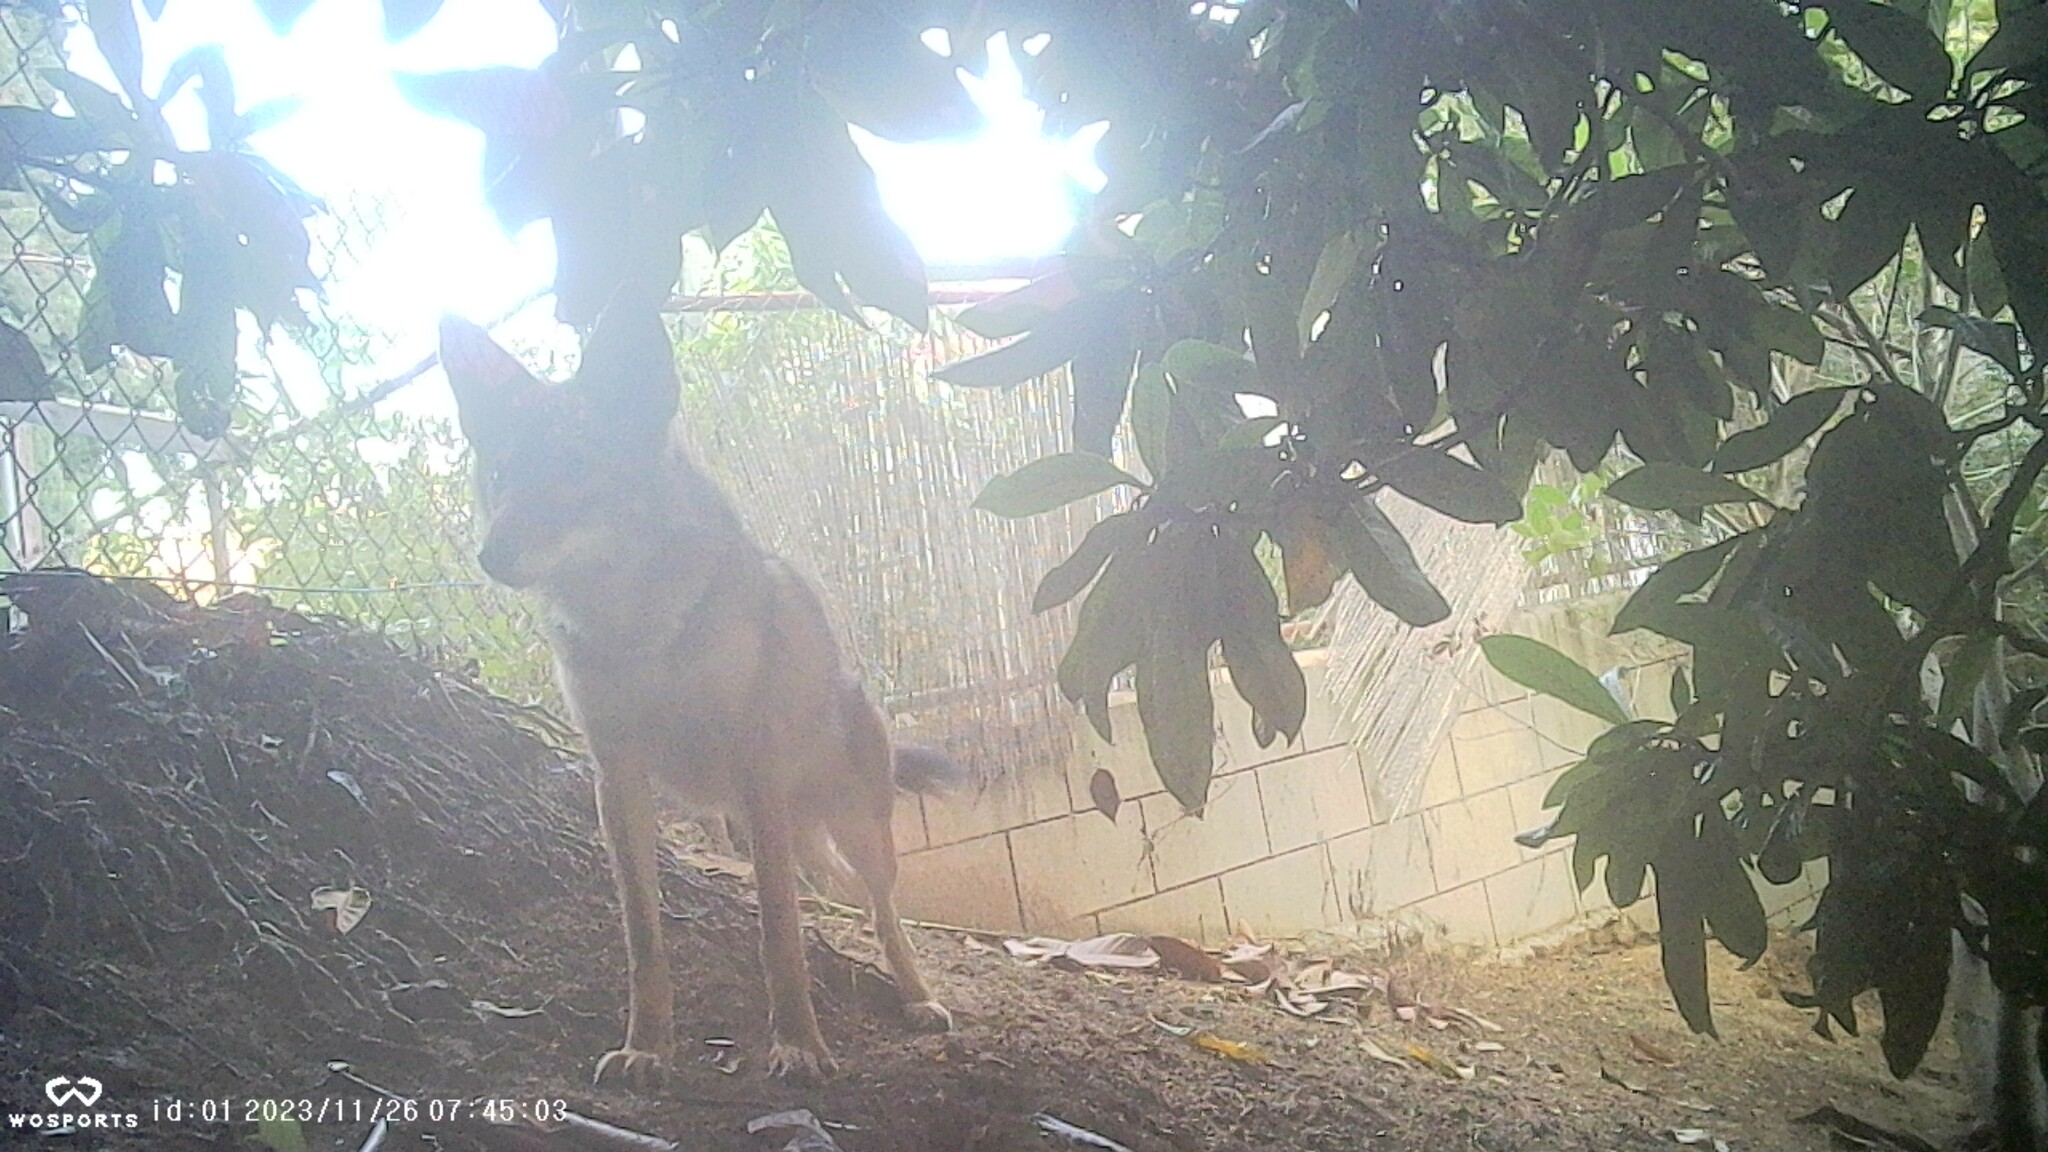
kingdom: Animalia
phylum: Chordata
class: Mammalia
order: Carnivora
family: Canidae
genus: Canis
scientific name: Canis latrans
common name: Coyote
